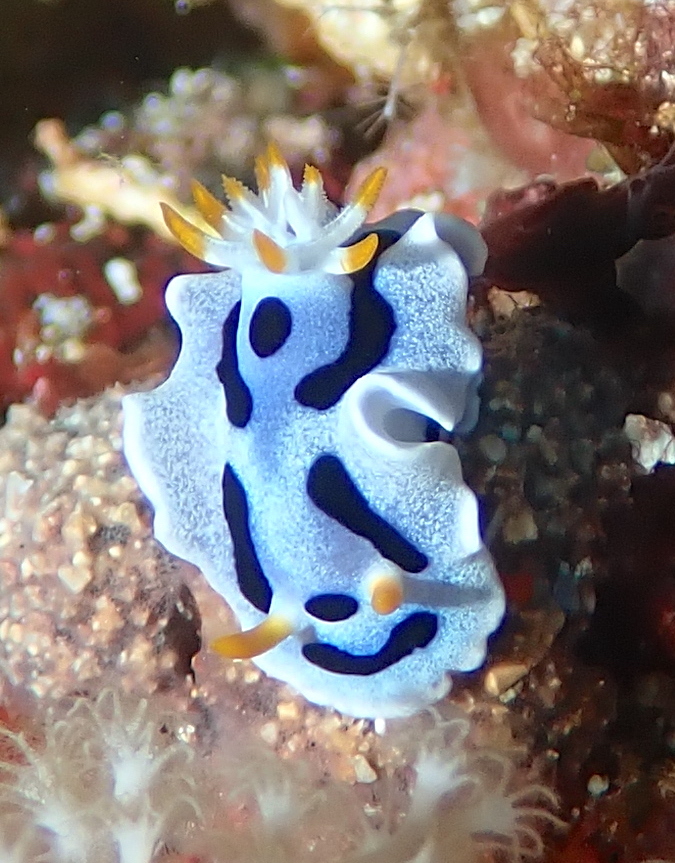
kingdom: Animalia
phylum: Mollusca
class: Gastropoda
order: Nudibranchia
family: Chromodorididae
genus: Chromodoris
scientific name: Chromodoris alcalai
